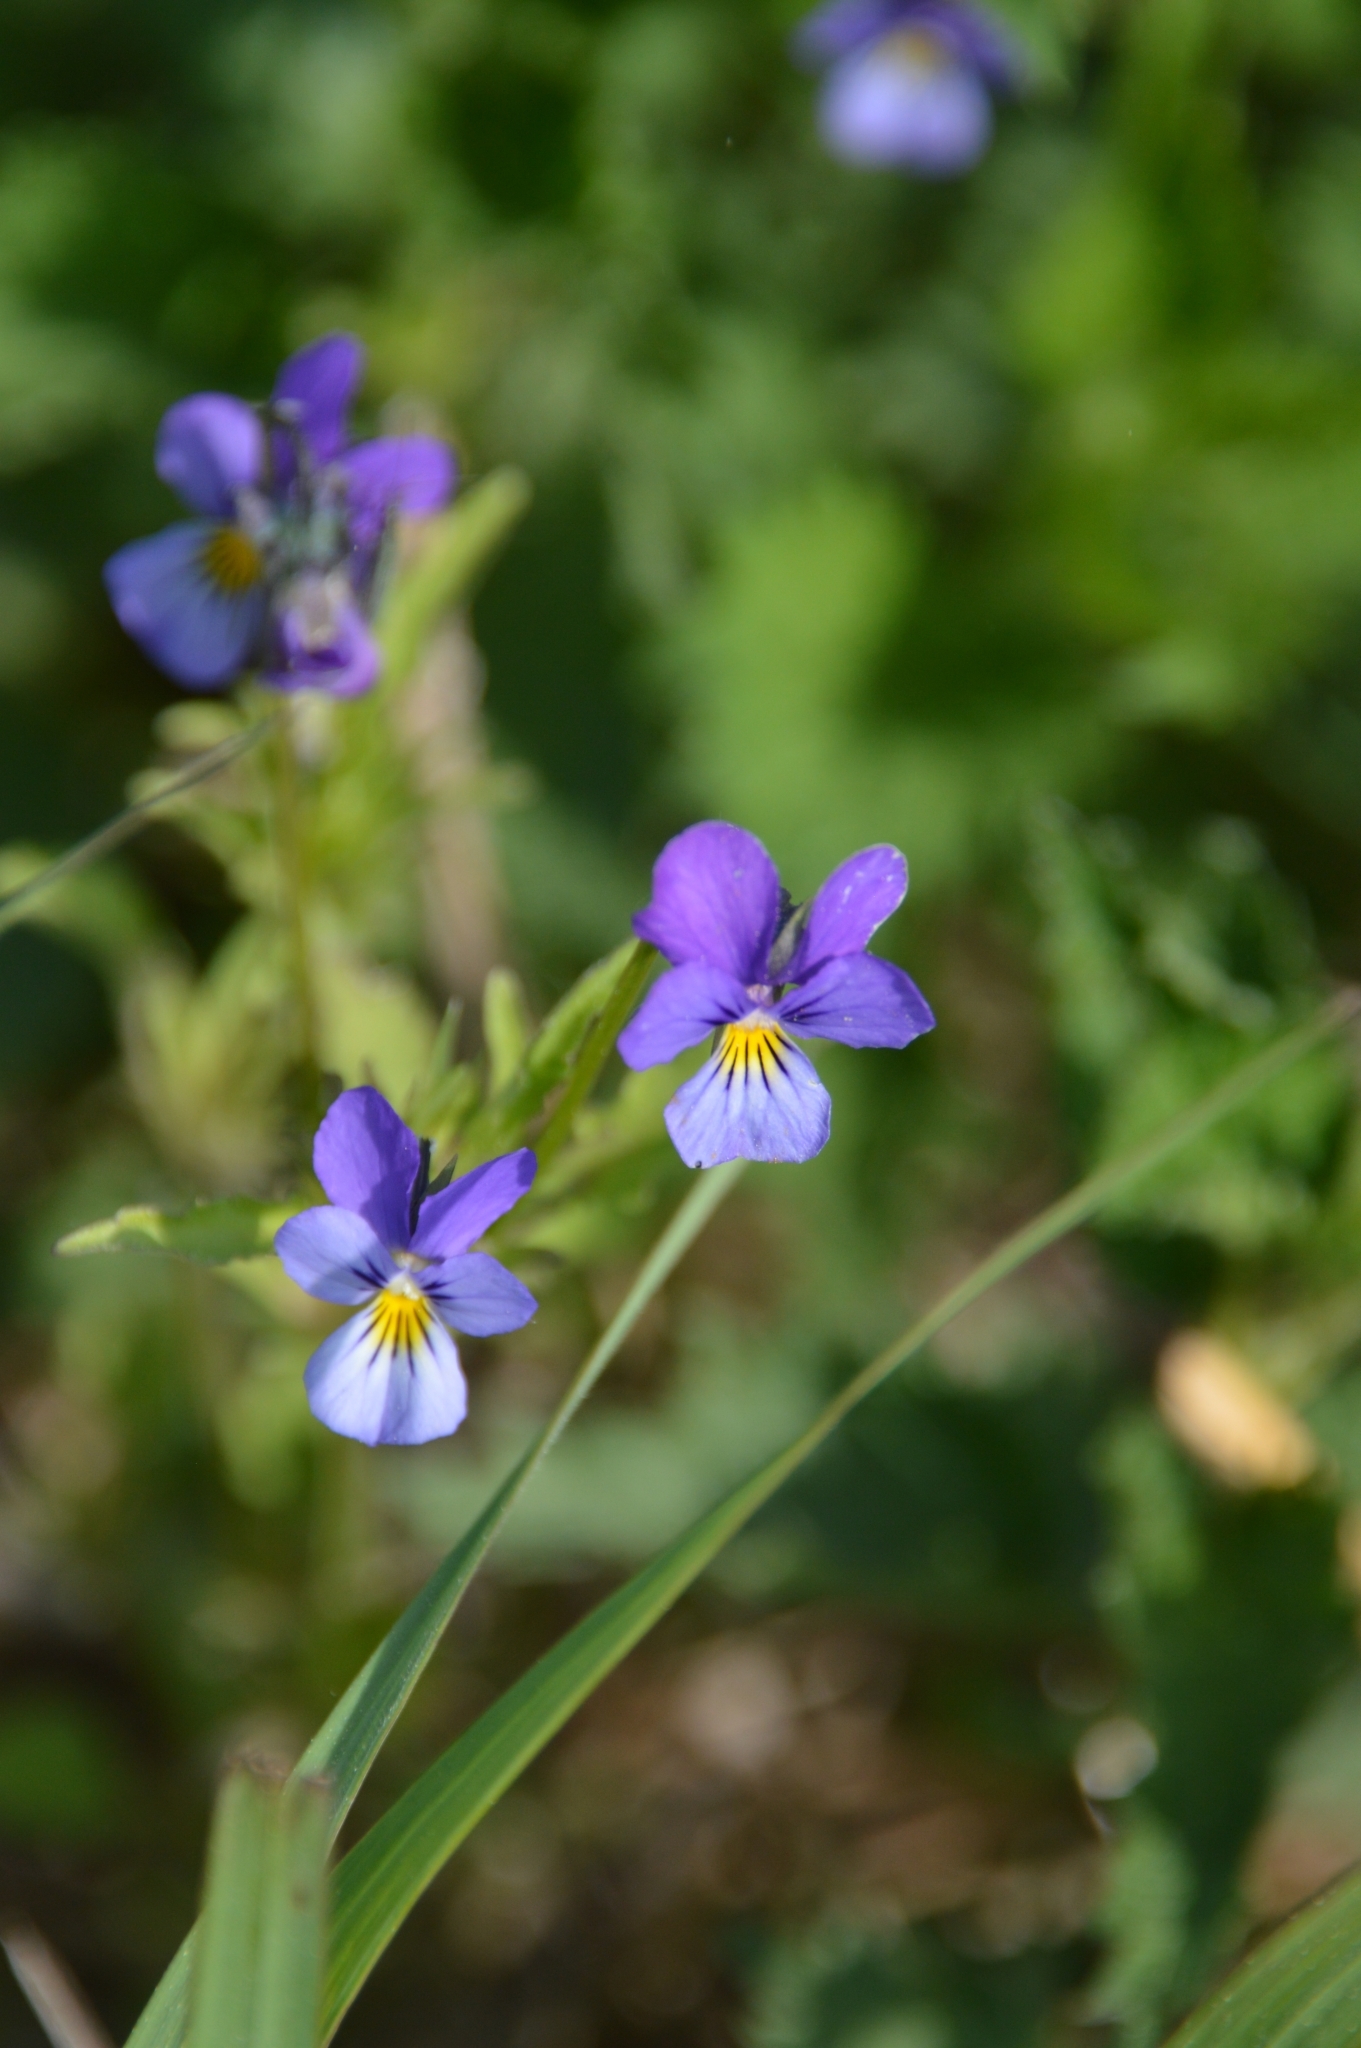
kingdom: Plantae
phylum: Tracheophyta
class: Magnoliopsida
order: Malpighiales
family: Violaceae
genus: Viola
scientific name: Viola tricolor
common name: Pansy
